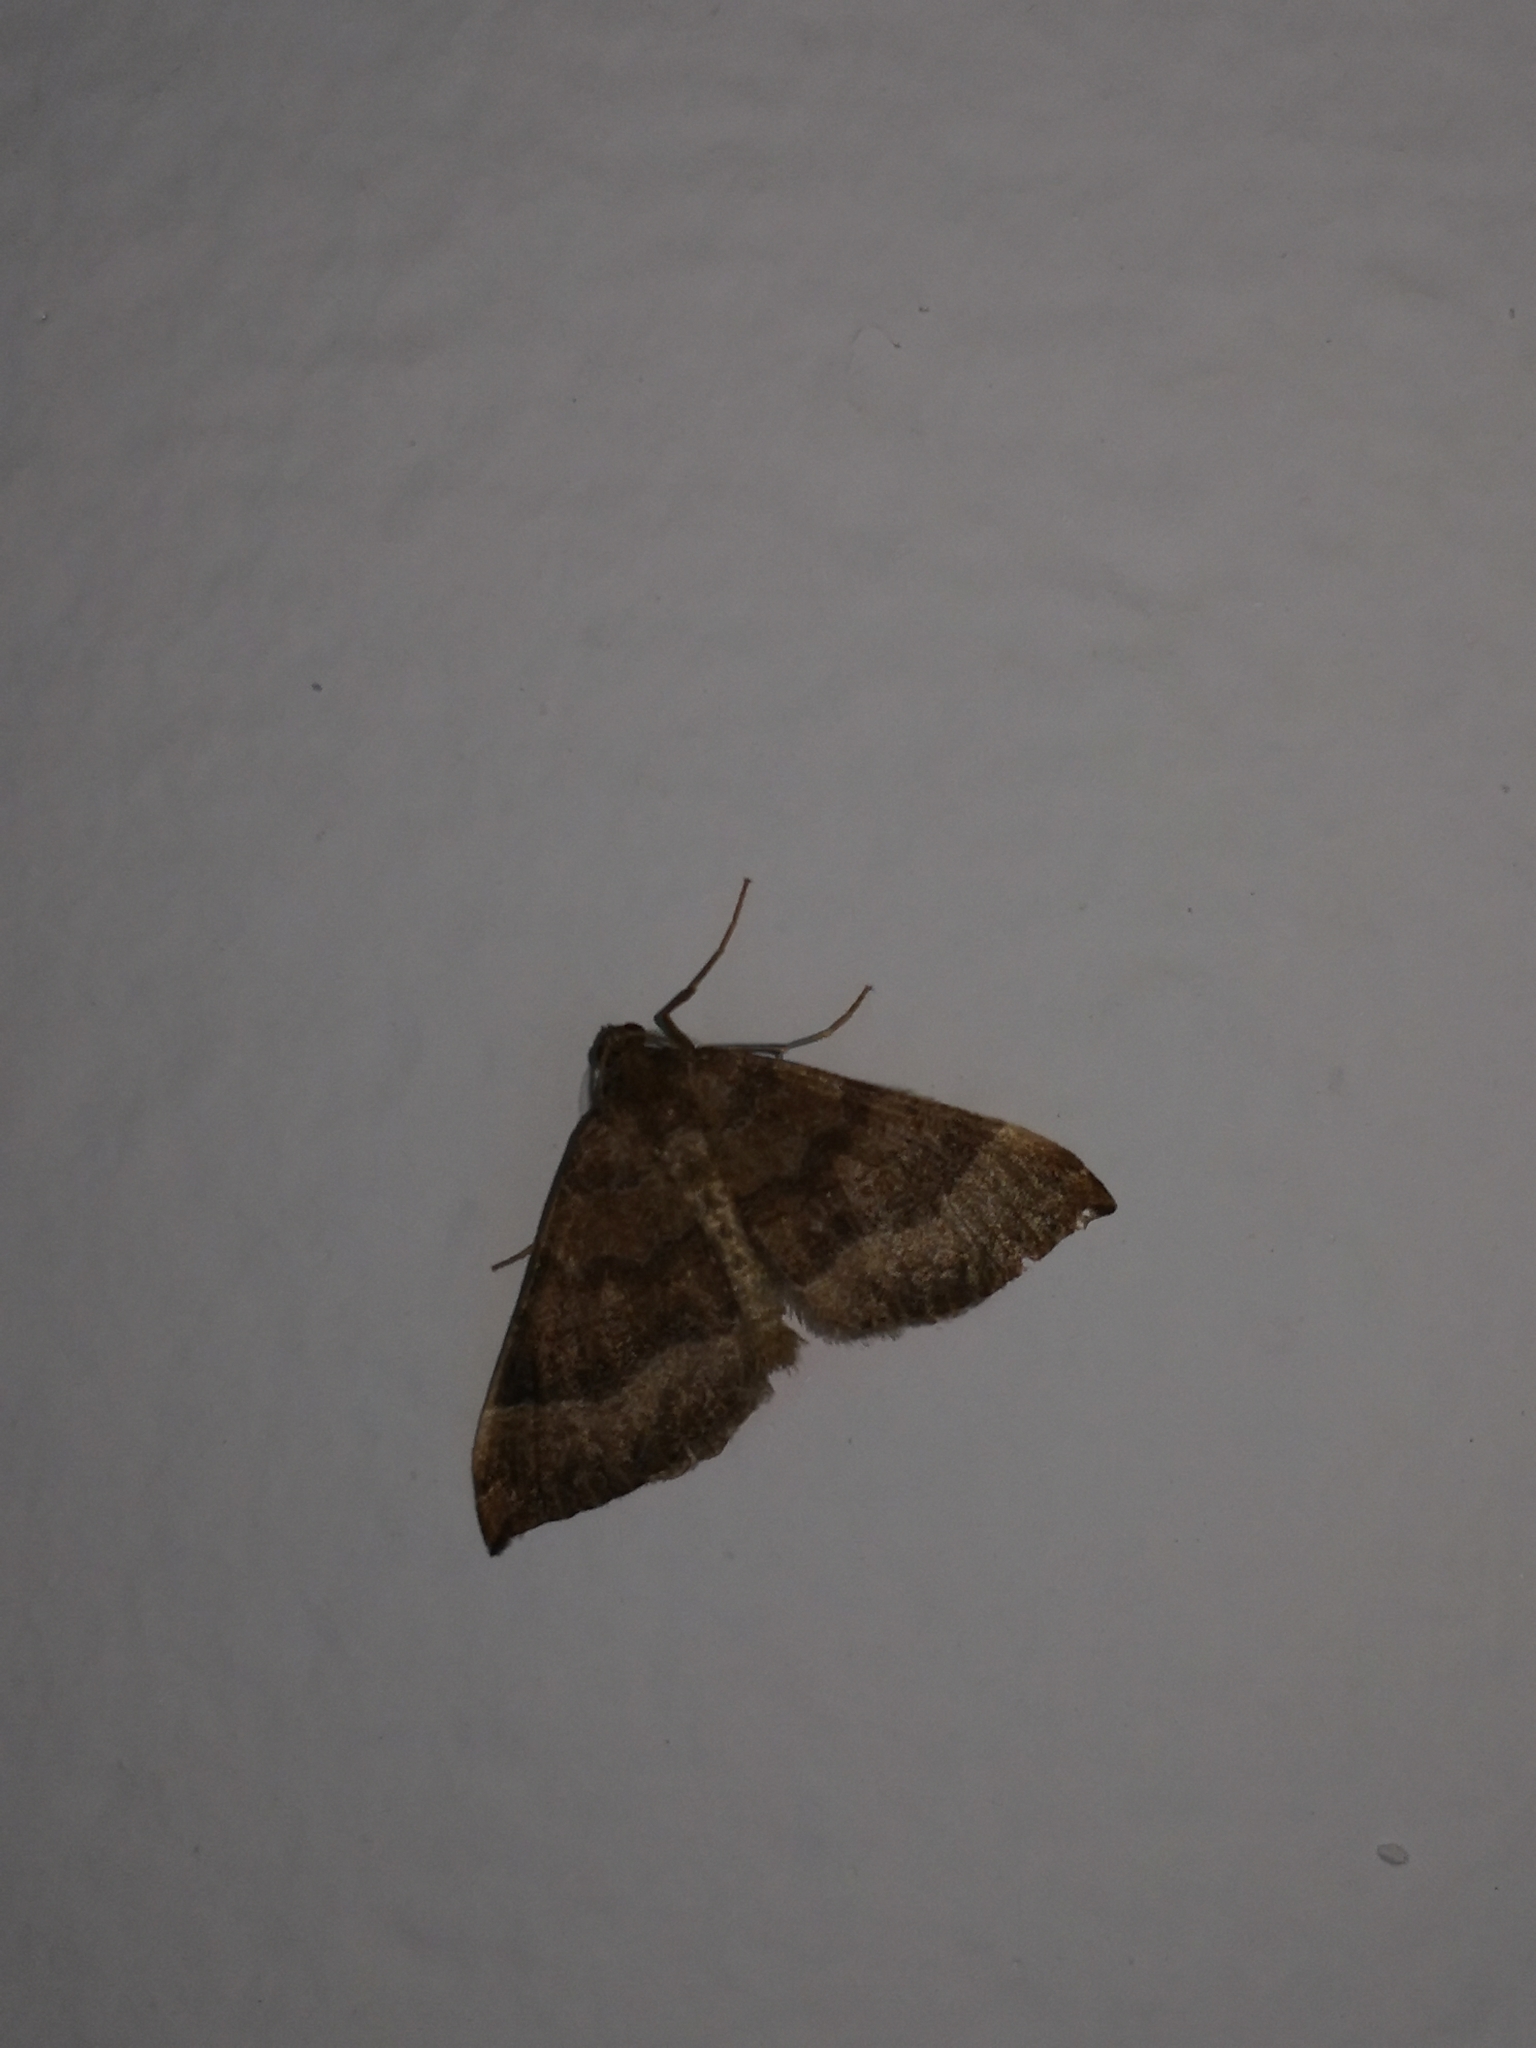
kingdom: Animalia
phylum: Arthropoda
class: Insecta
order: Lepidoptera
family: Geometridae
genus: Larentia
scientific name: Larentia clavaria
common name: Mallow
